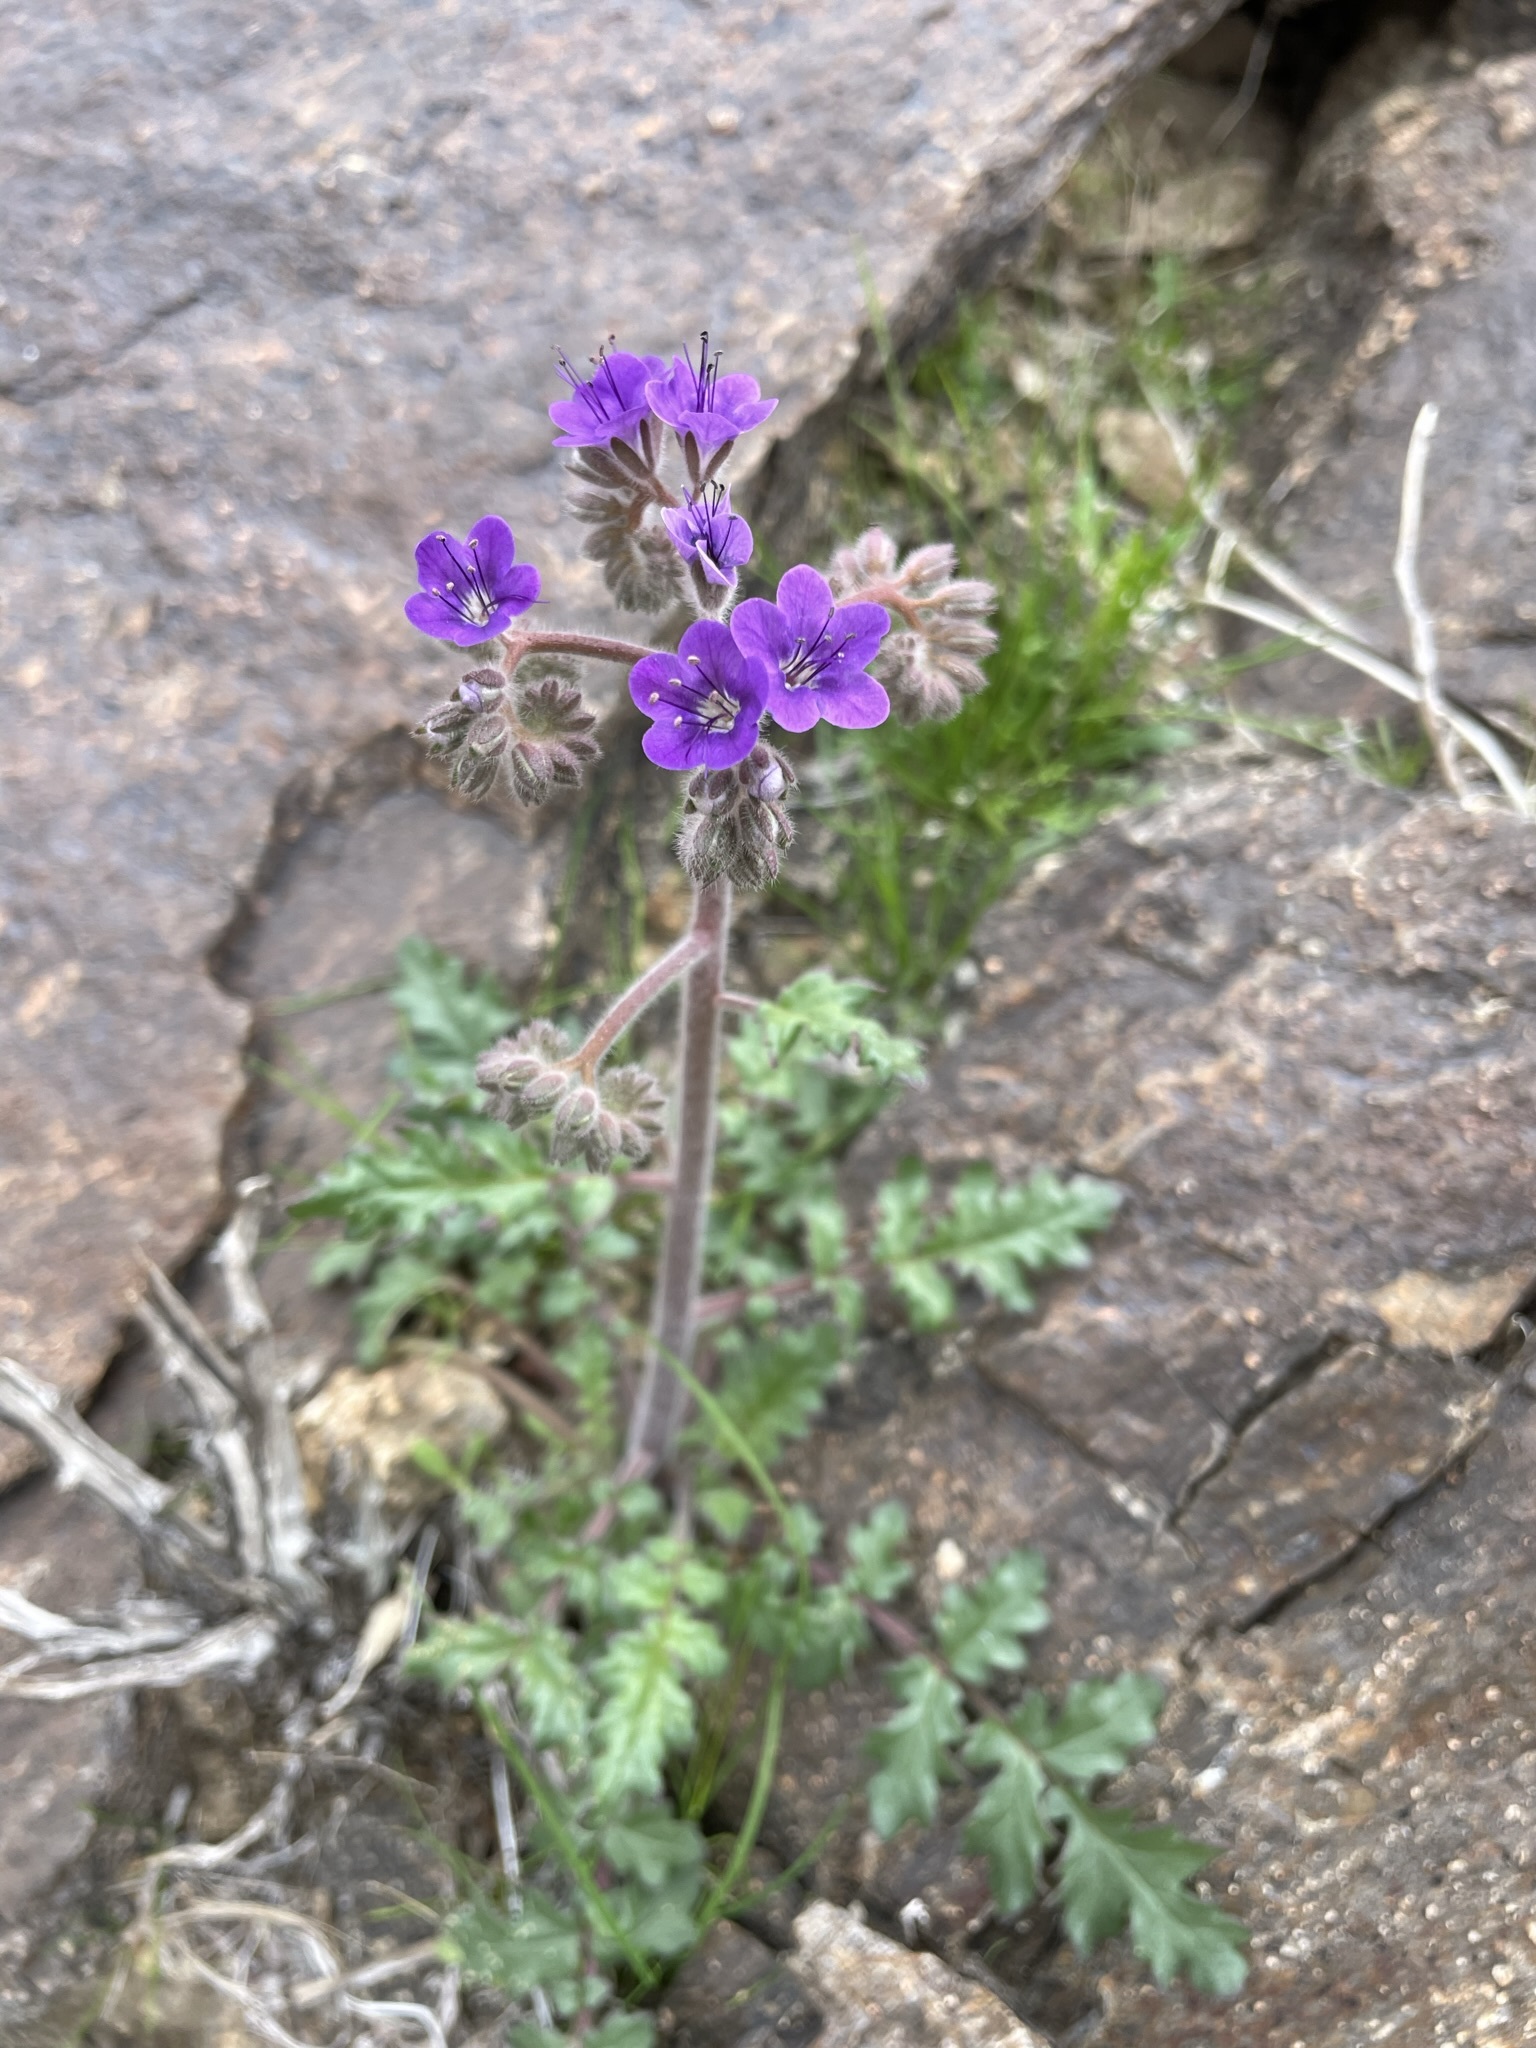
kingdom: Plantae
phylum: Tracheophyta
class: Magnoliopsida
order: Boraginales
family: Hydrophyllaceae
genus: Phacelia
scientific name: Phacelia crenulata
